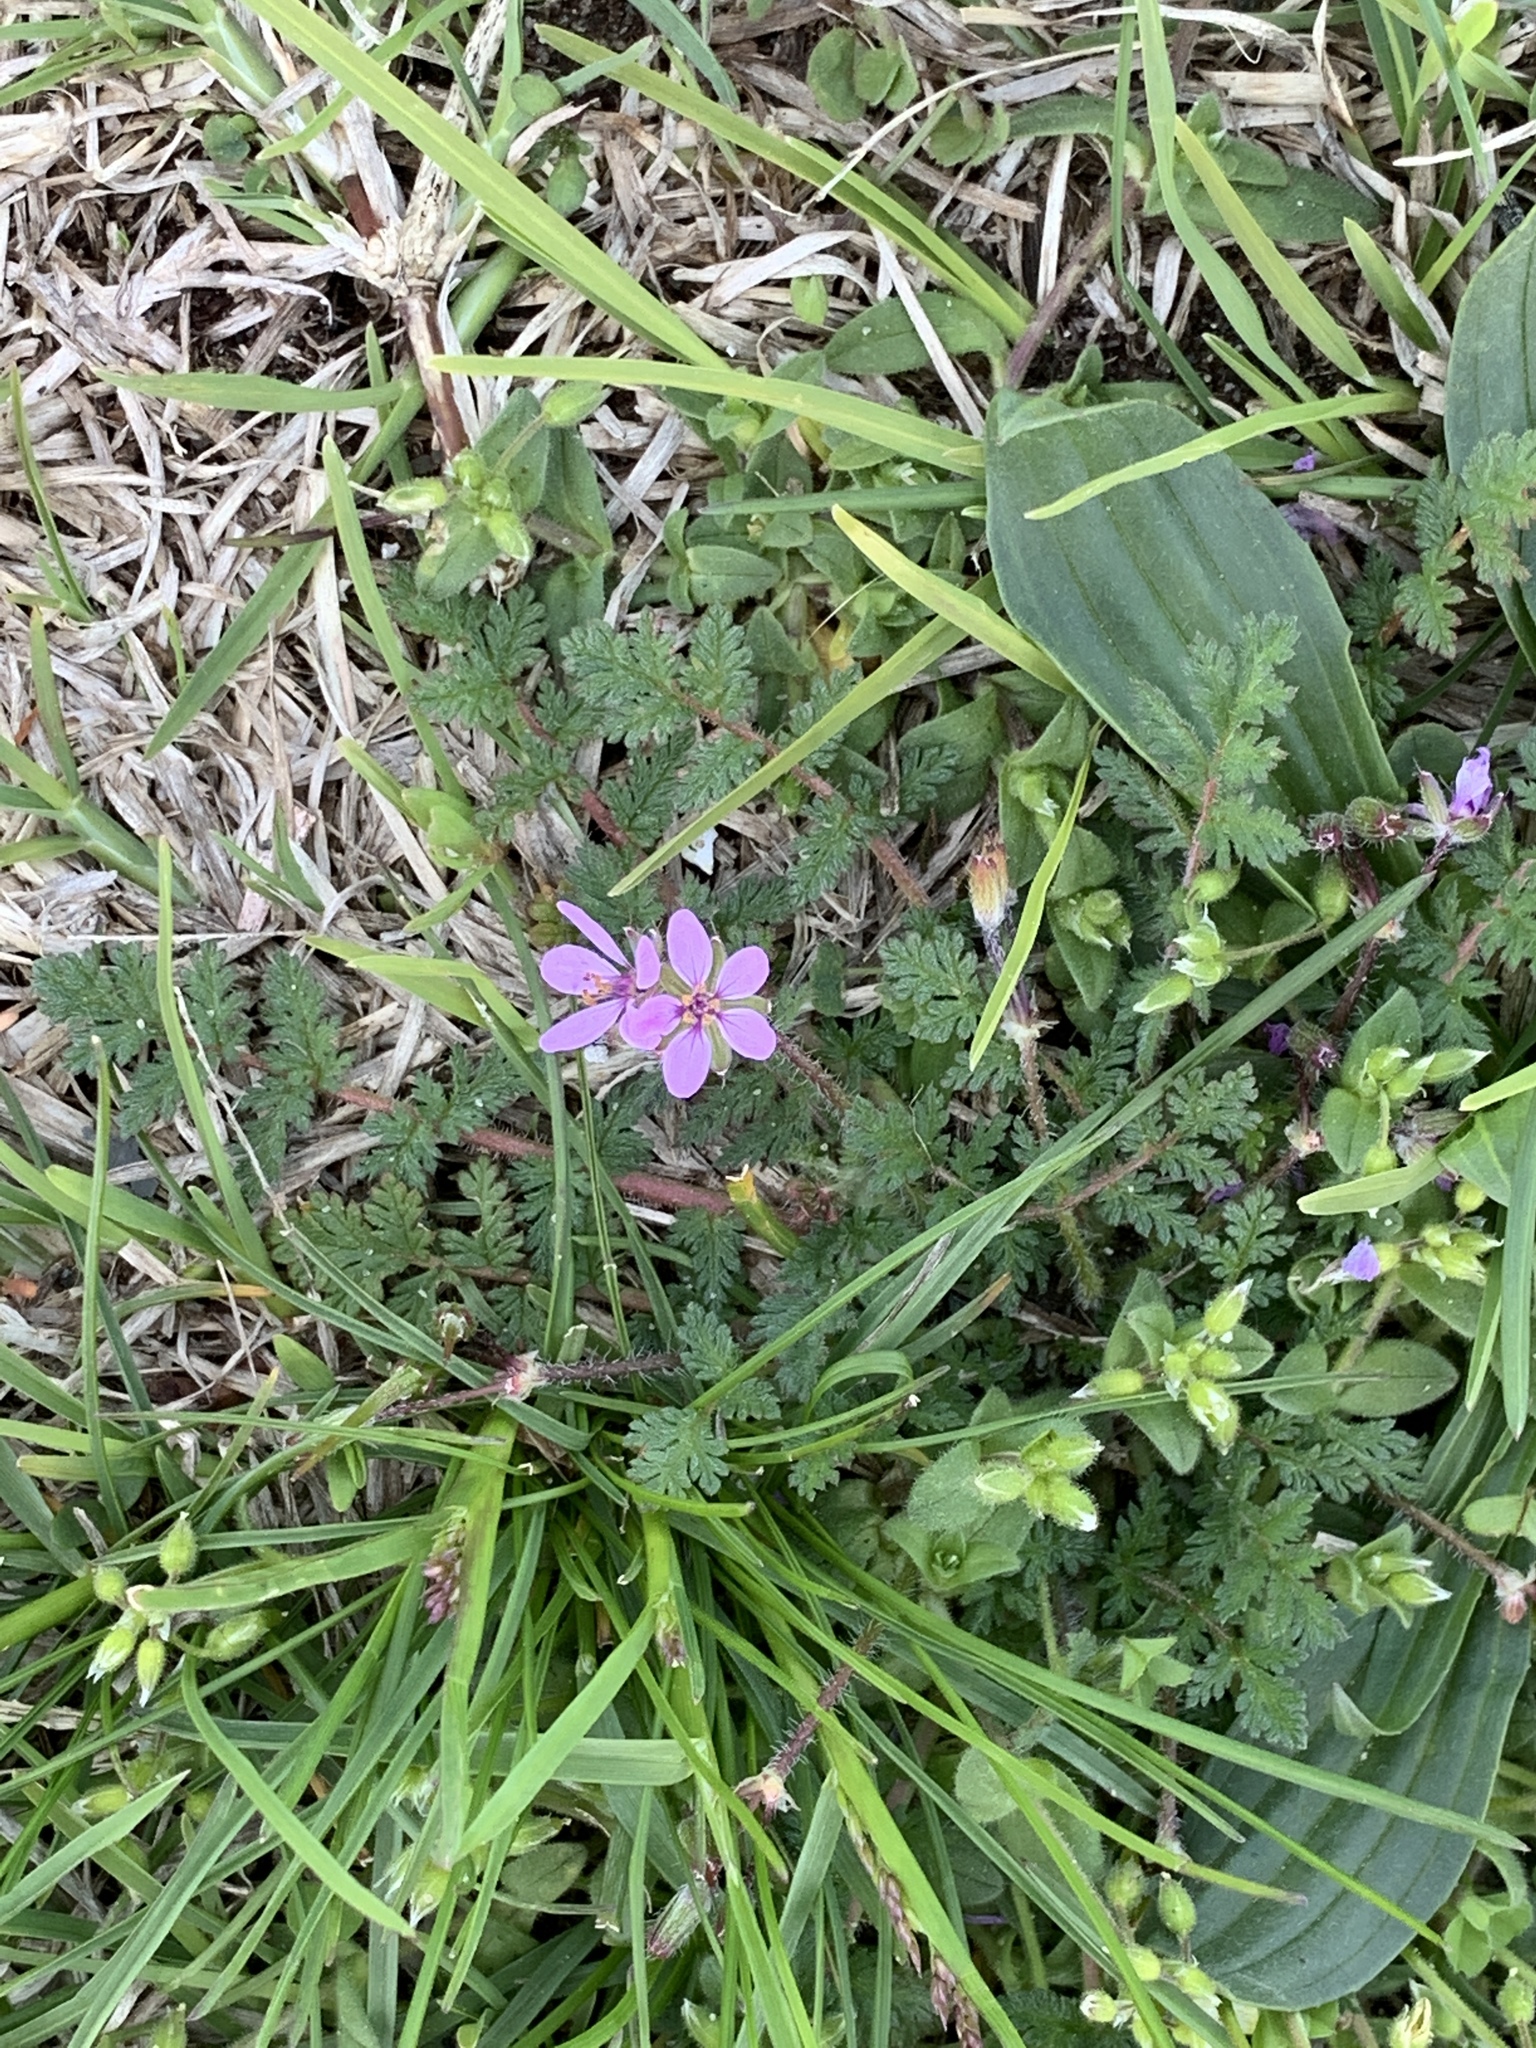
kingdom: Plantae
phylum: Tracheophyta
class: Magnoliopsida
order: Geraniales
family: Geraniaceae
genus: Erodium
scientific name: Erodium cicutarium
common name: Common stork's-bill
